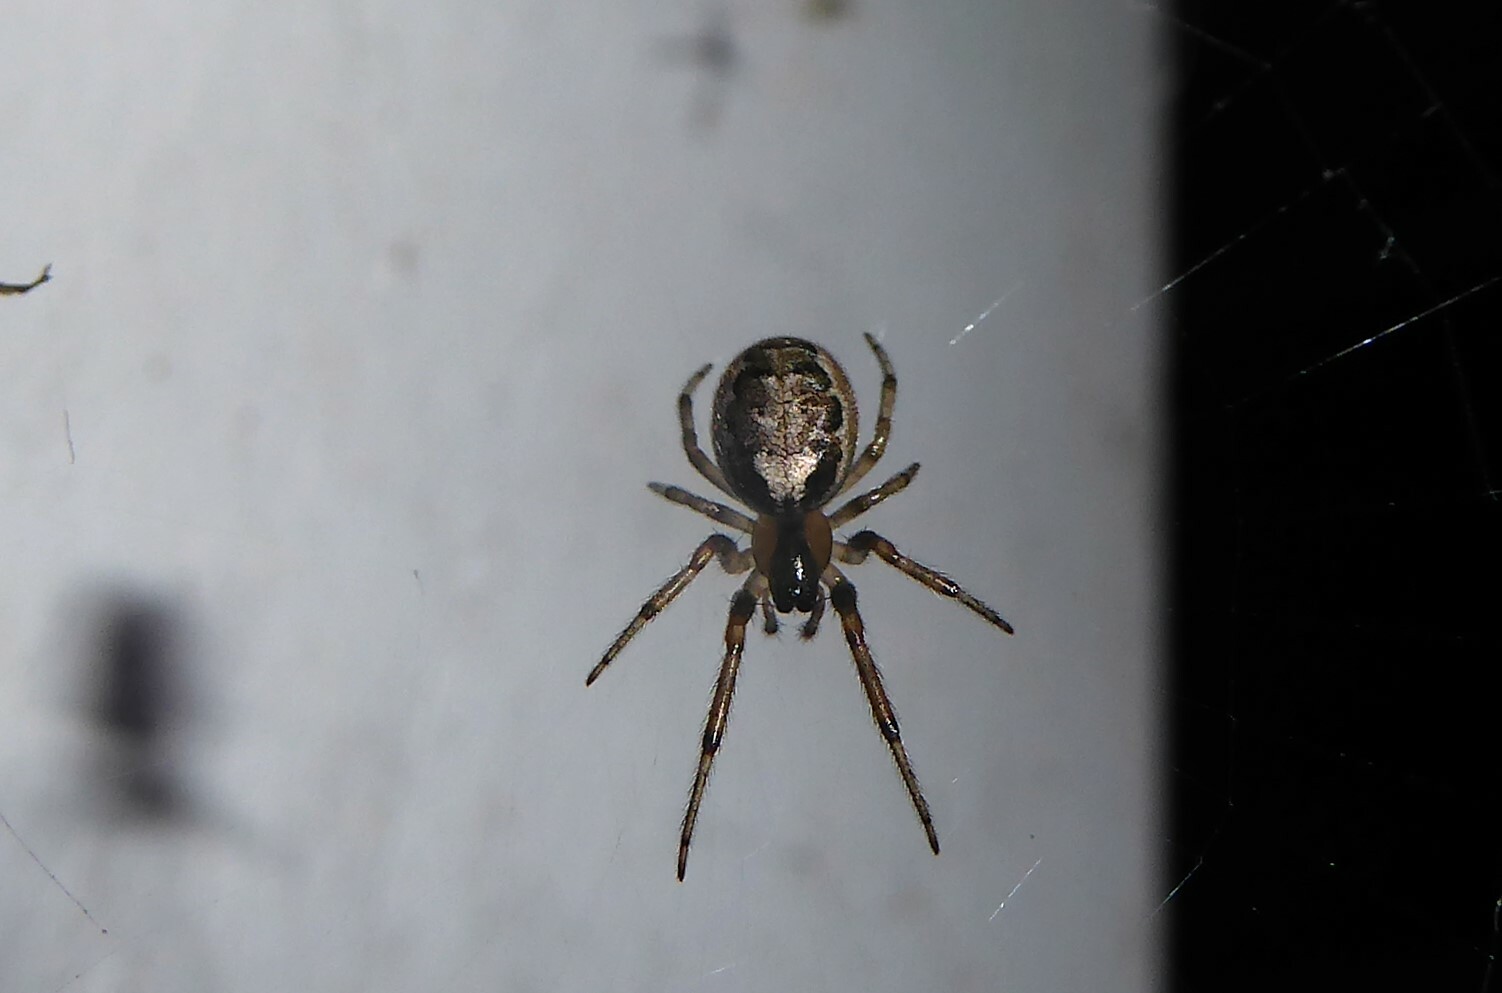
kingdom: Animalia
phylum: Arthropoda
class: Arachnida
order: Araneae
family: Araneidae
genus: Zygiella
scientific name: Zygiella x-notata
